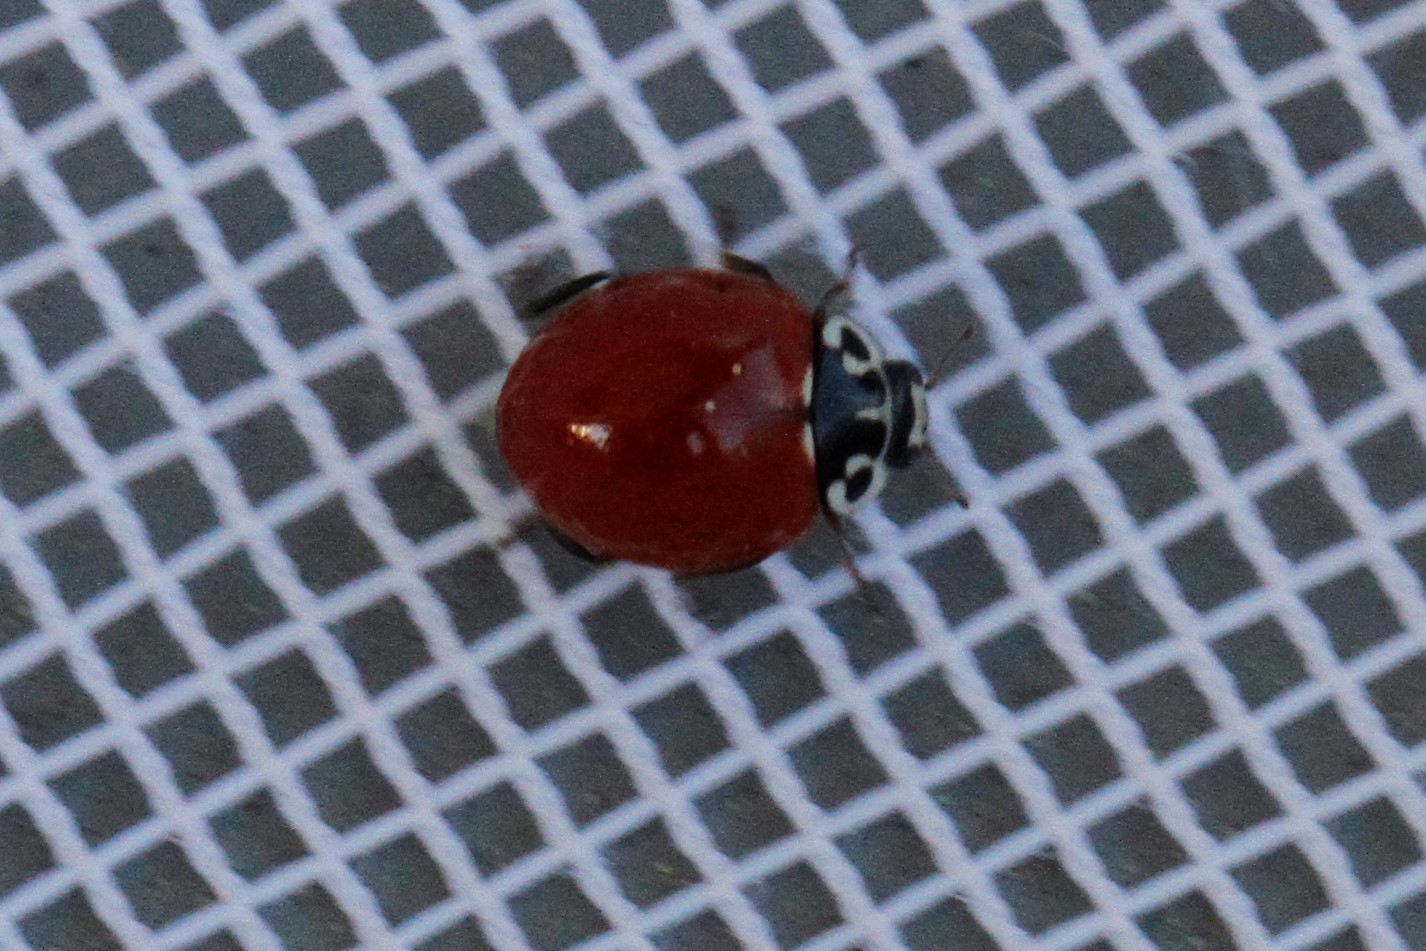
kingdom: Animalia
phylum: Arthropoda
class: Insecta
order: Coleoptera
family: Coccinellidae
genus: Cycloneda
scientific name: Cycloneda polita
